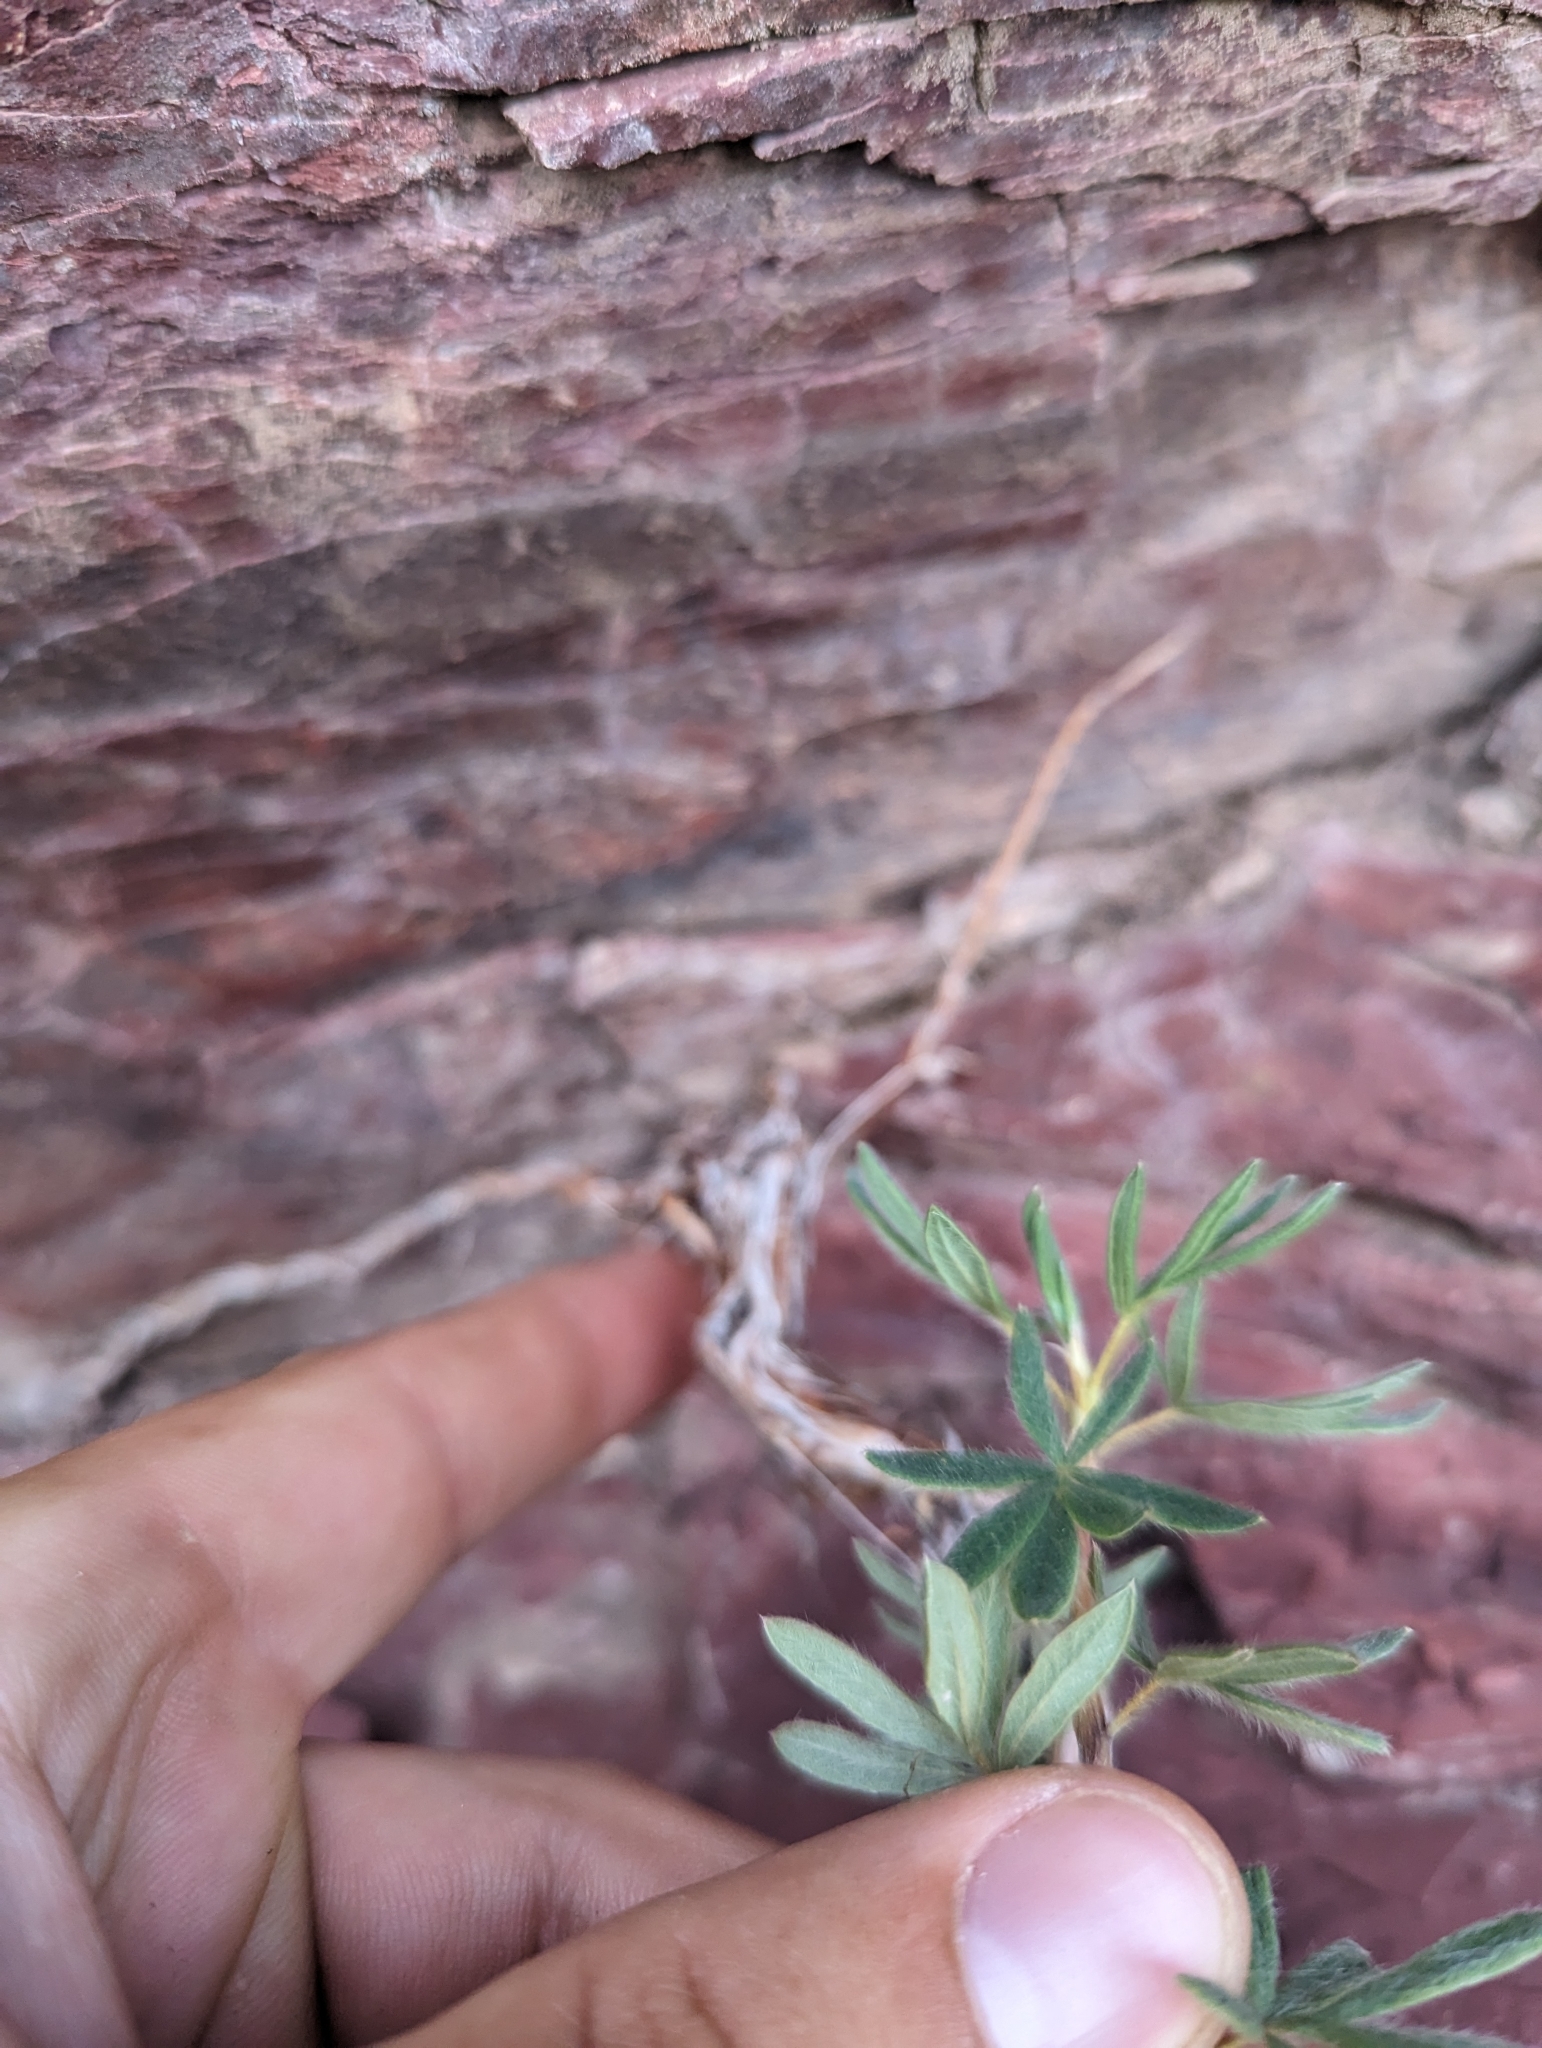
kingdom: Plantae
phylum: Tracheophyta
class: Magnoliopsida
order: Rosales
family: Rosaceae
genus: Dasiphora
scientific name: Dasiphora fruticosa
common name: Shrubby cinquefoil
